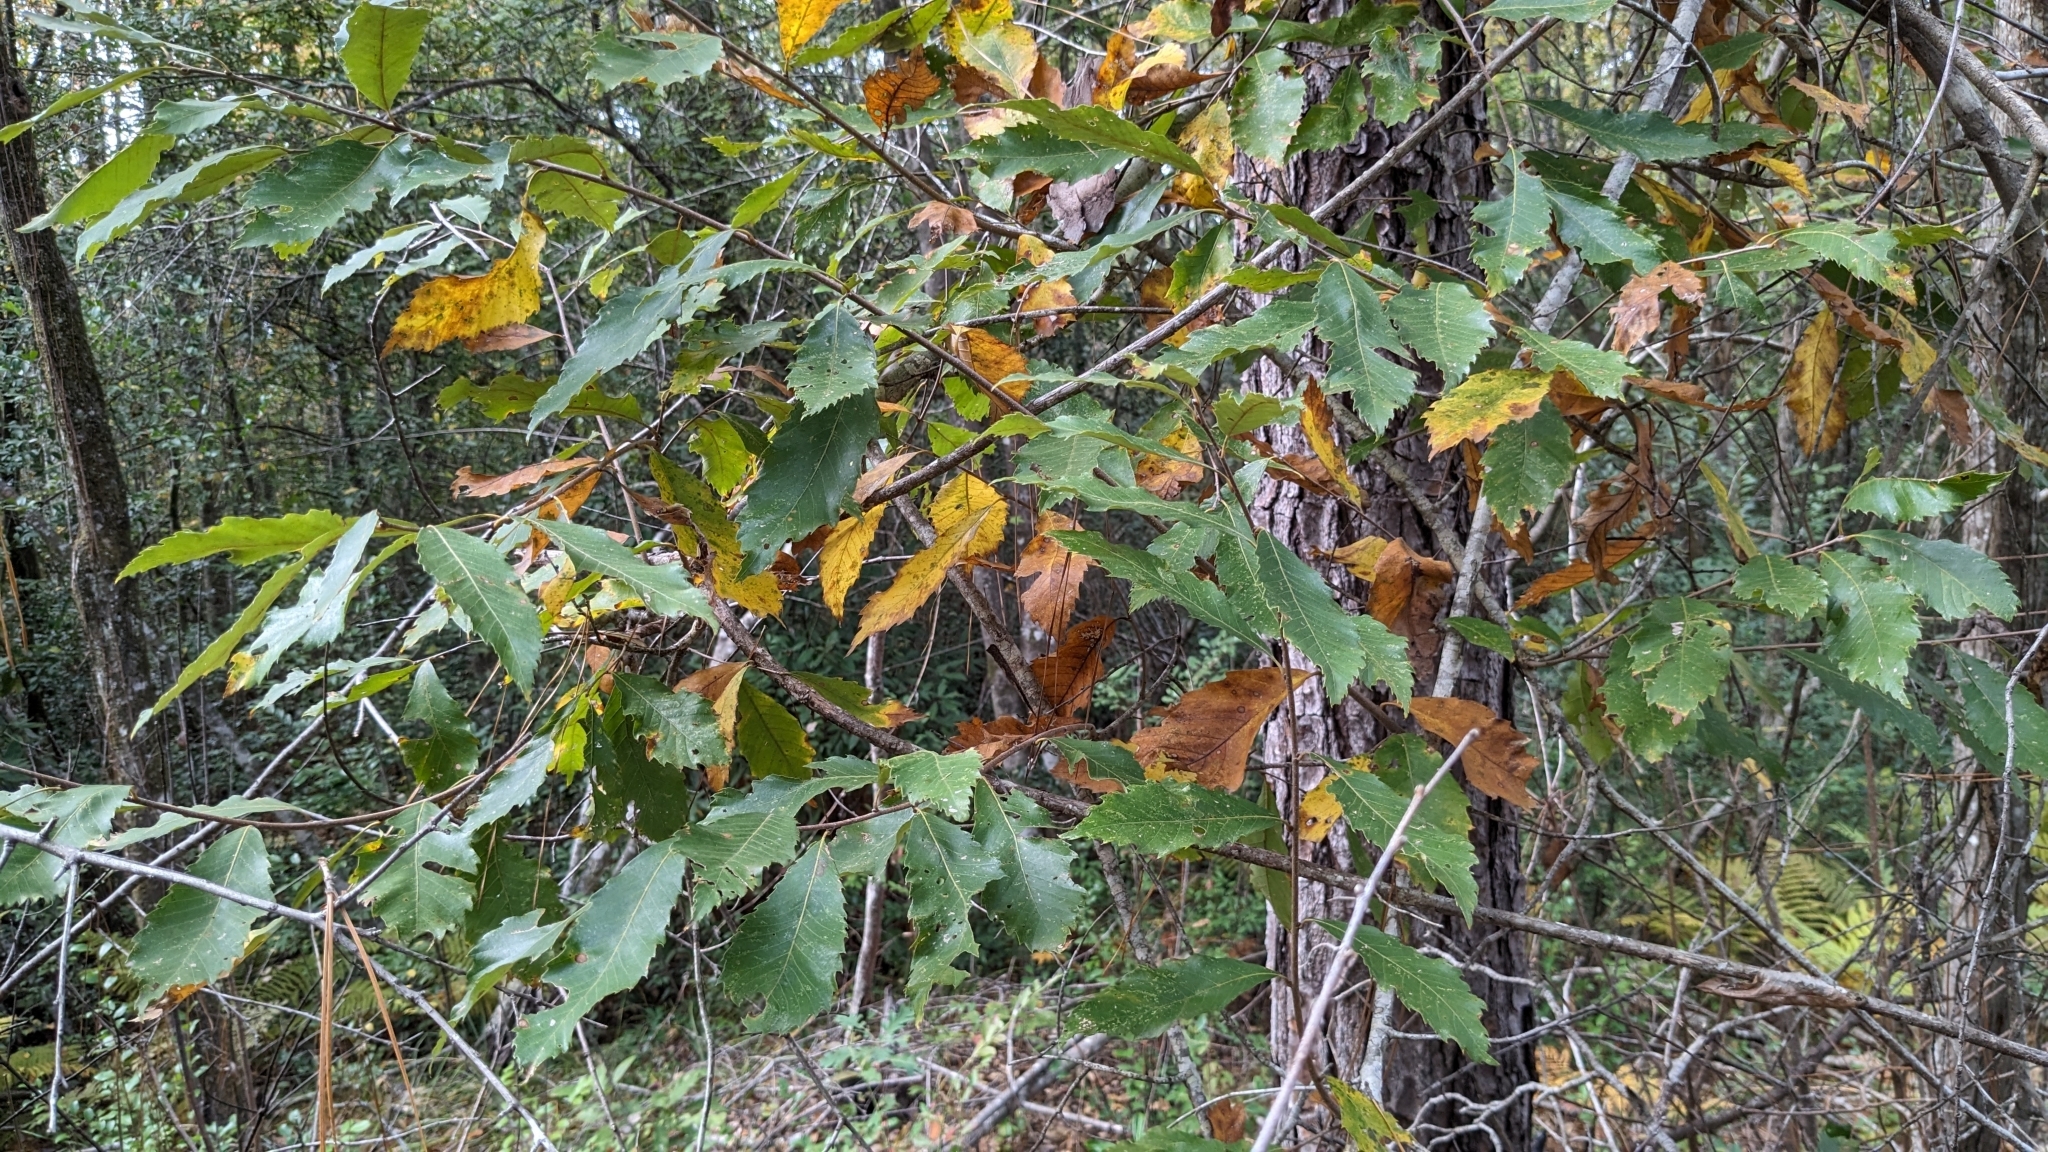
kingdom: Plantae
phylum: Tracheophyta
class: Magnoliopsida
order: Fagales
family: Fagaceae
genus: Castanea
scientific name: Castanea pumila
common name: Chinkapin
